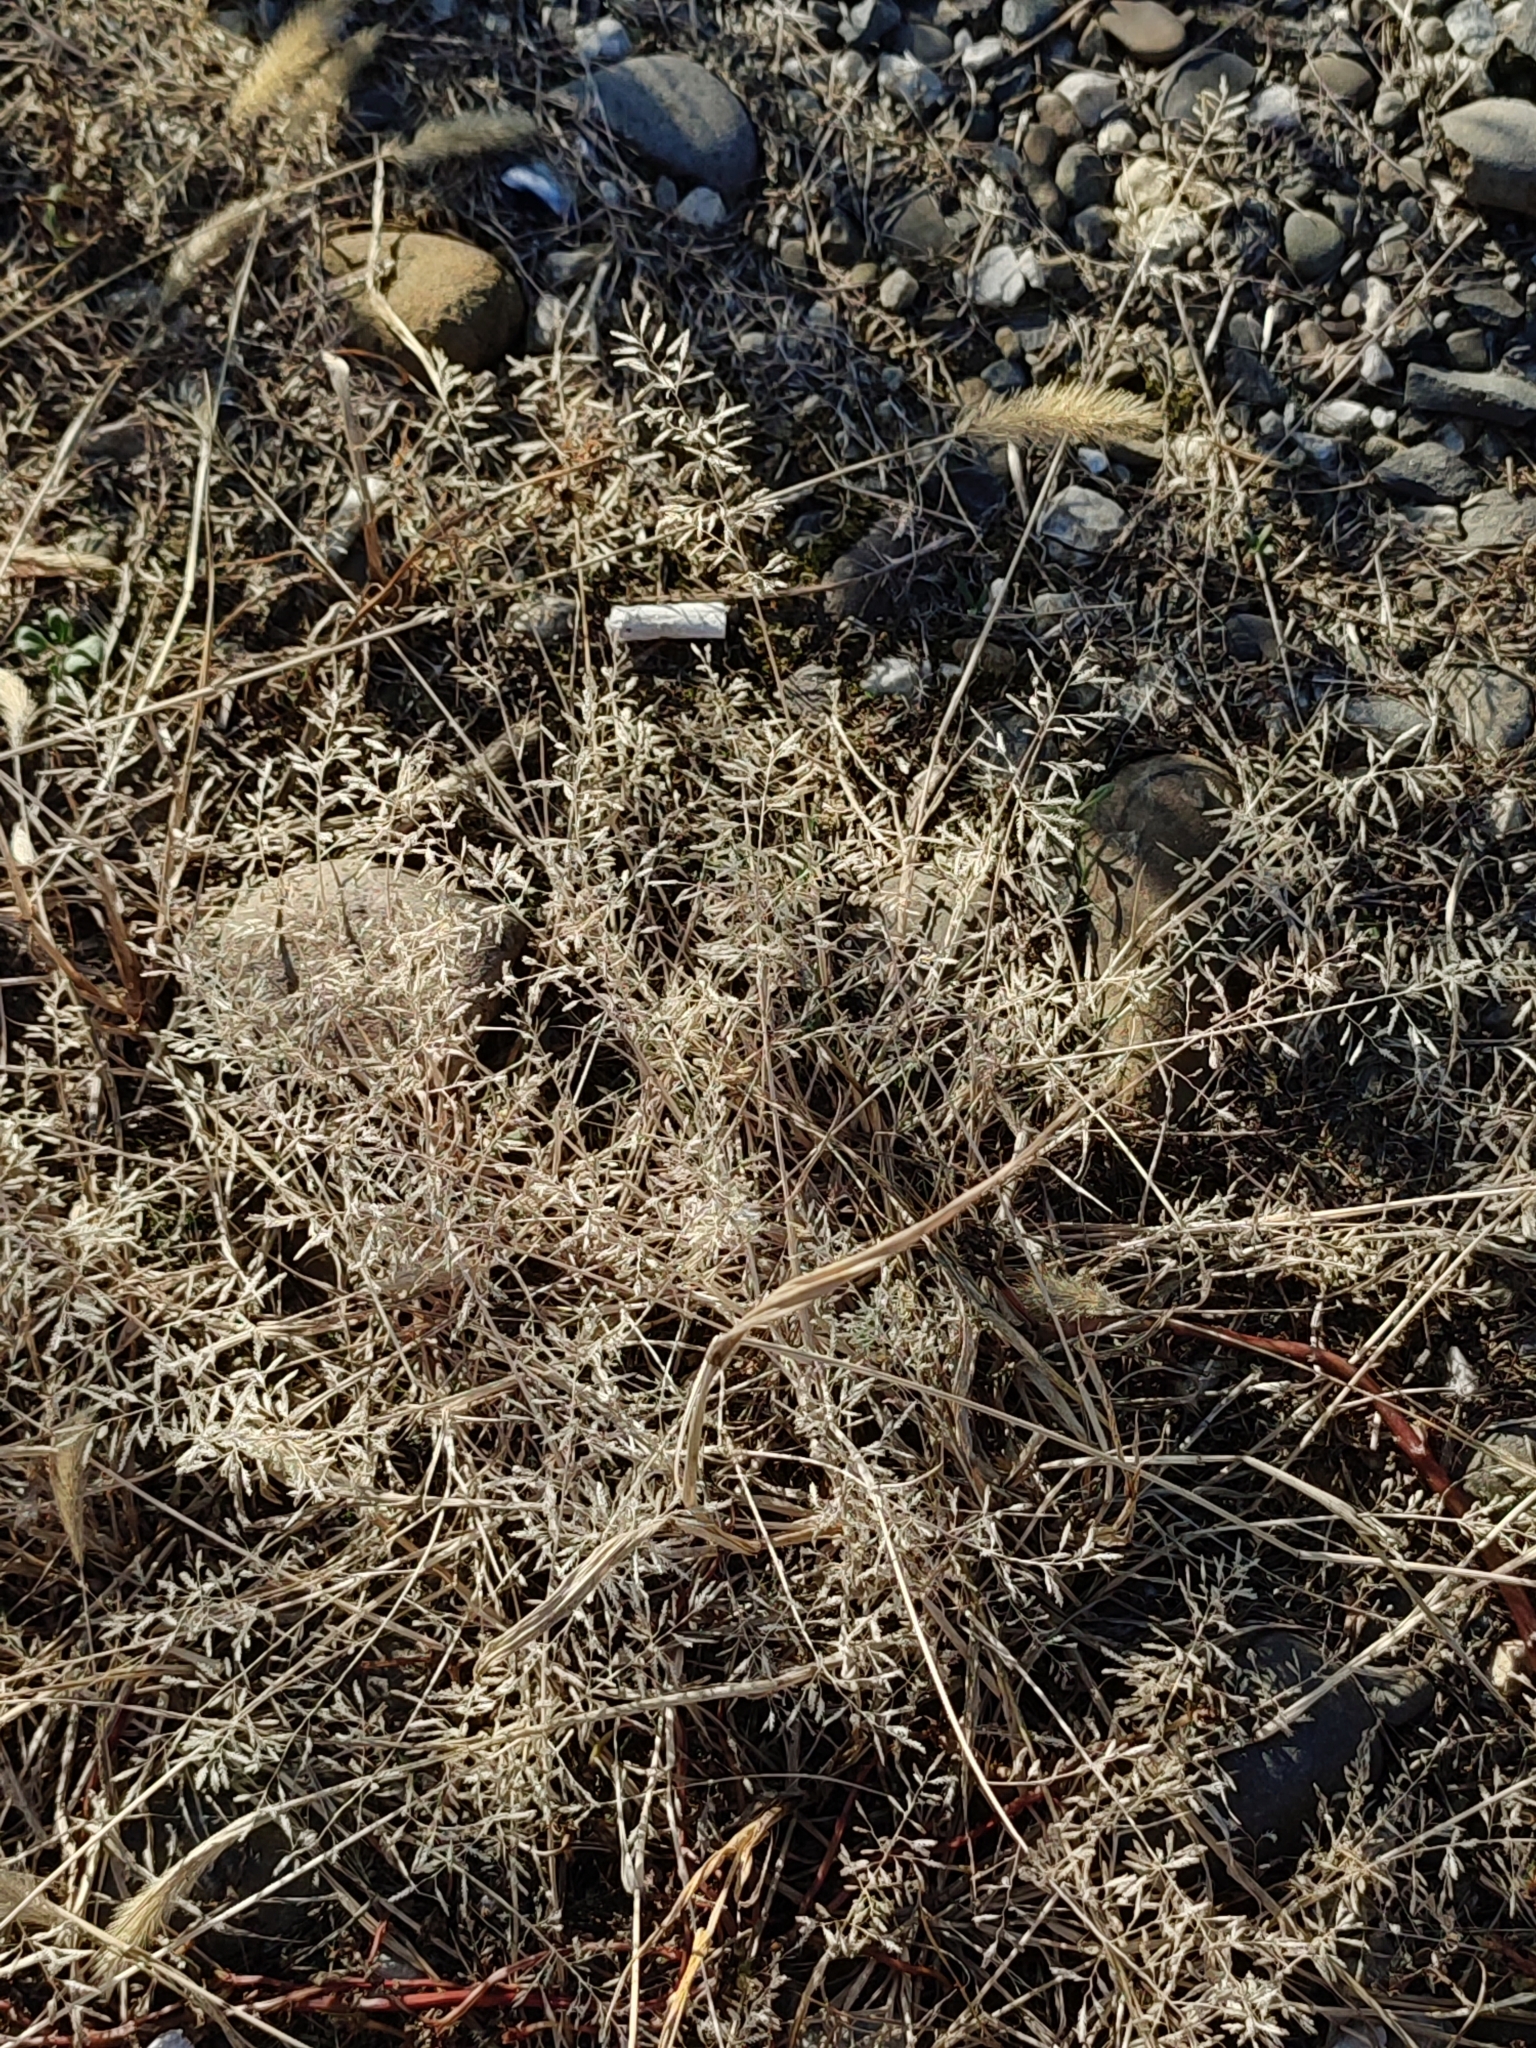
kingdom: Plantae
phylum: Tracheophyta
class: Liliopsida
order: Poales
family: Poaceae
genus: Eragrostis
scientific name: Eragrostis minor
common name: Small love-grass
